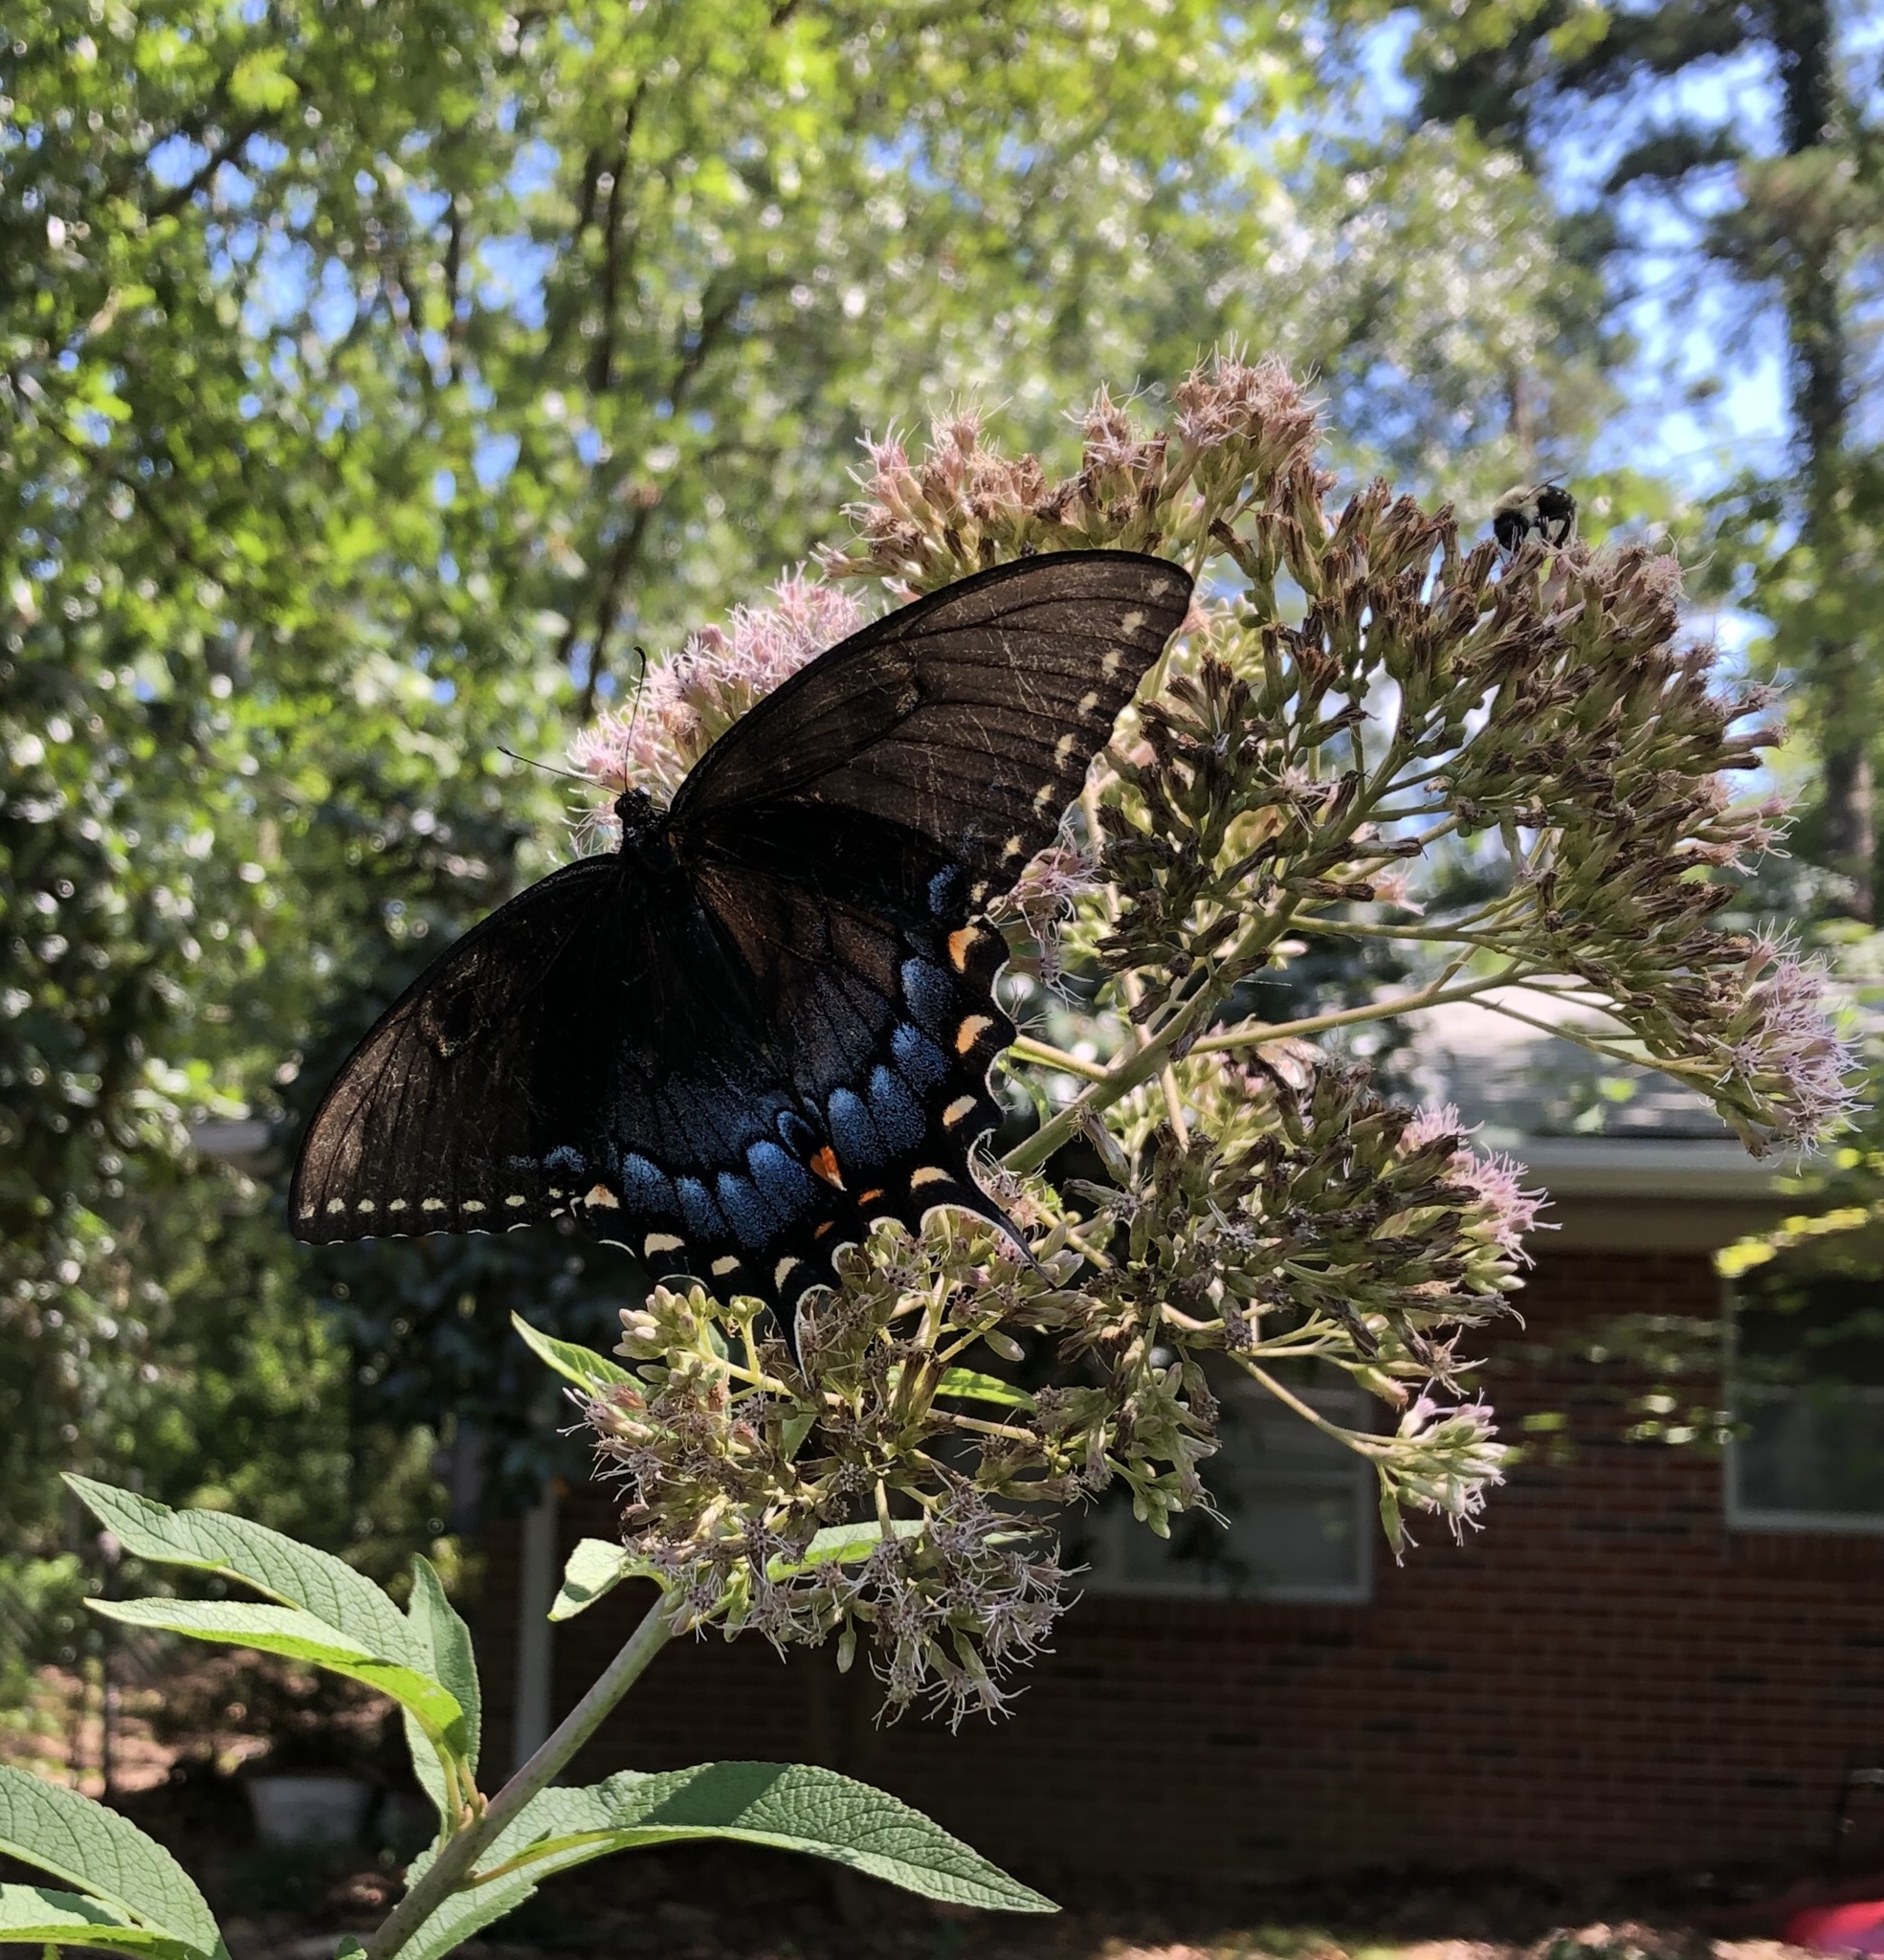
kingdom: Animalia
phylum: Arthropoda
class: Insecta
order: Lepidoptera
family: Papilionidae
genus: Papilio
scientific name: Papilio glaucus
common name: Tiger swallowtail
